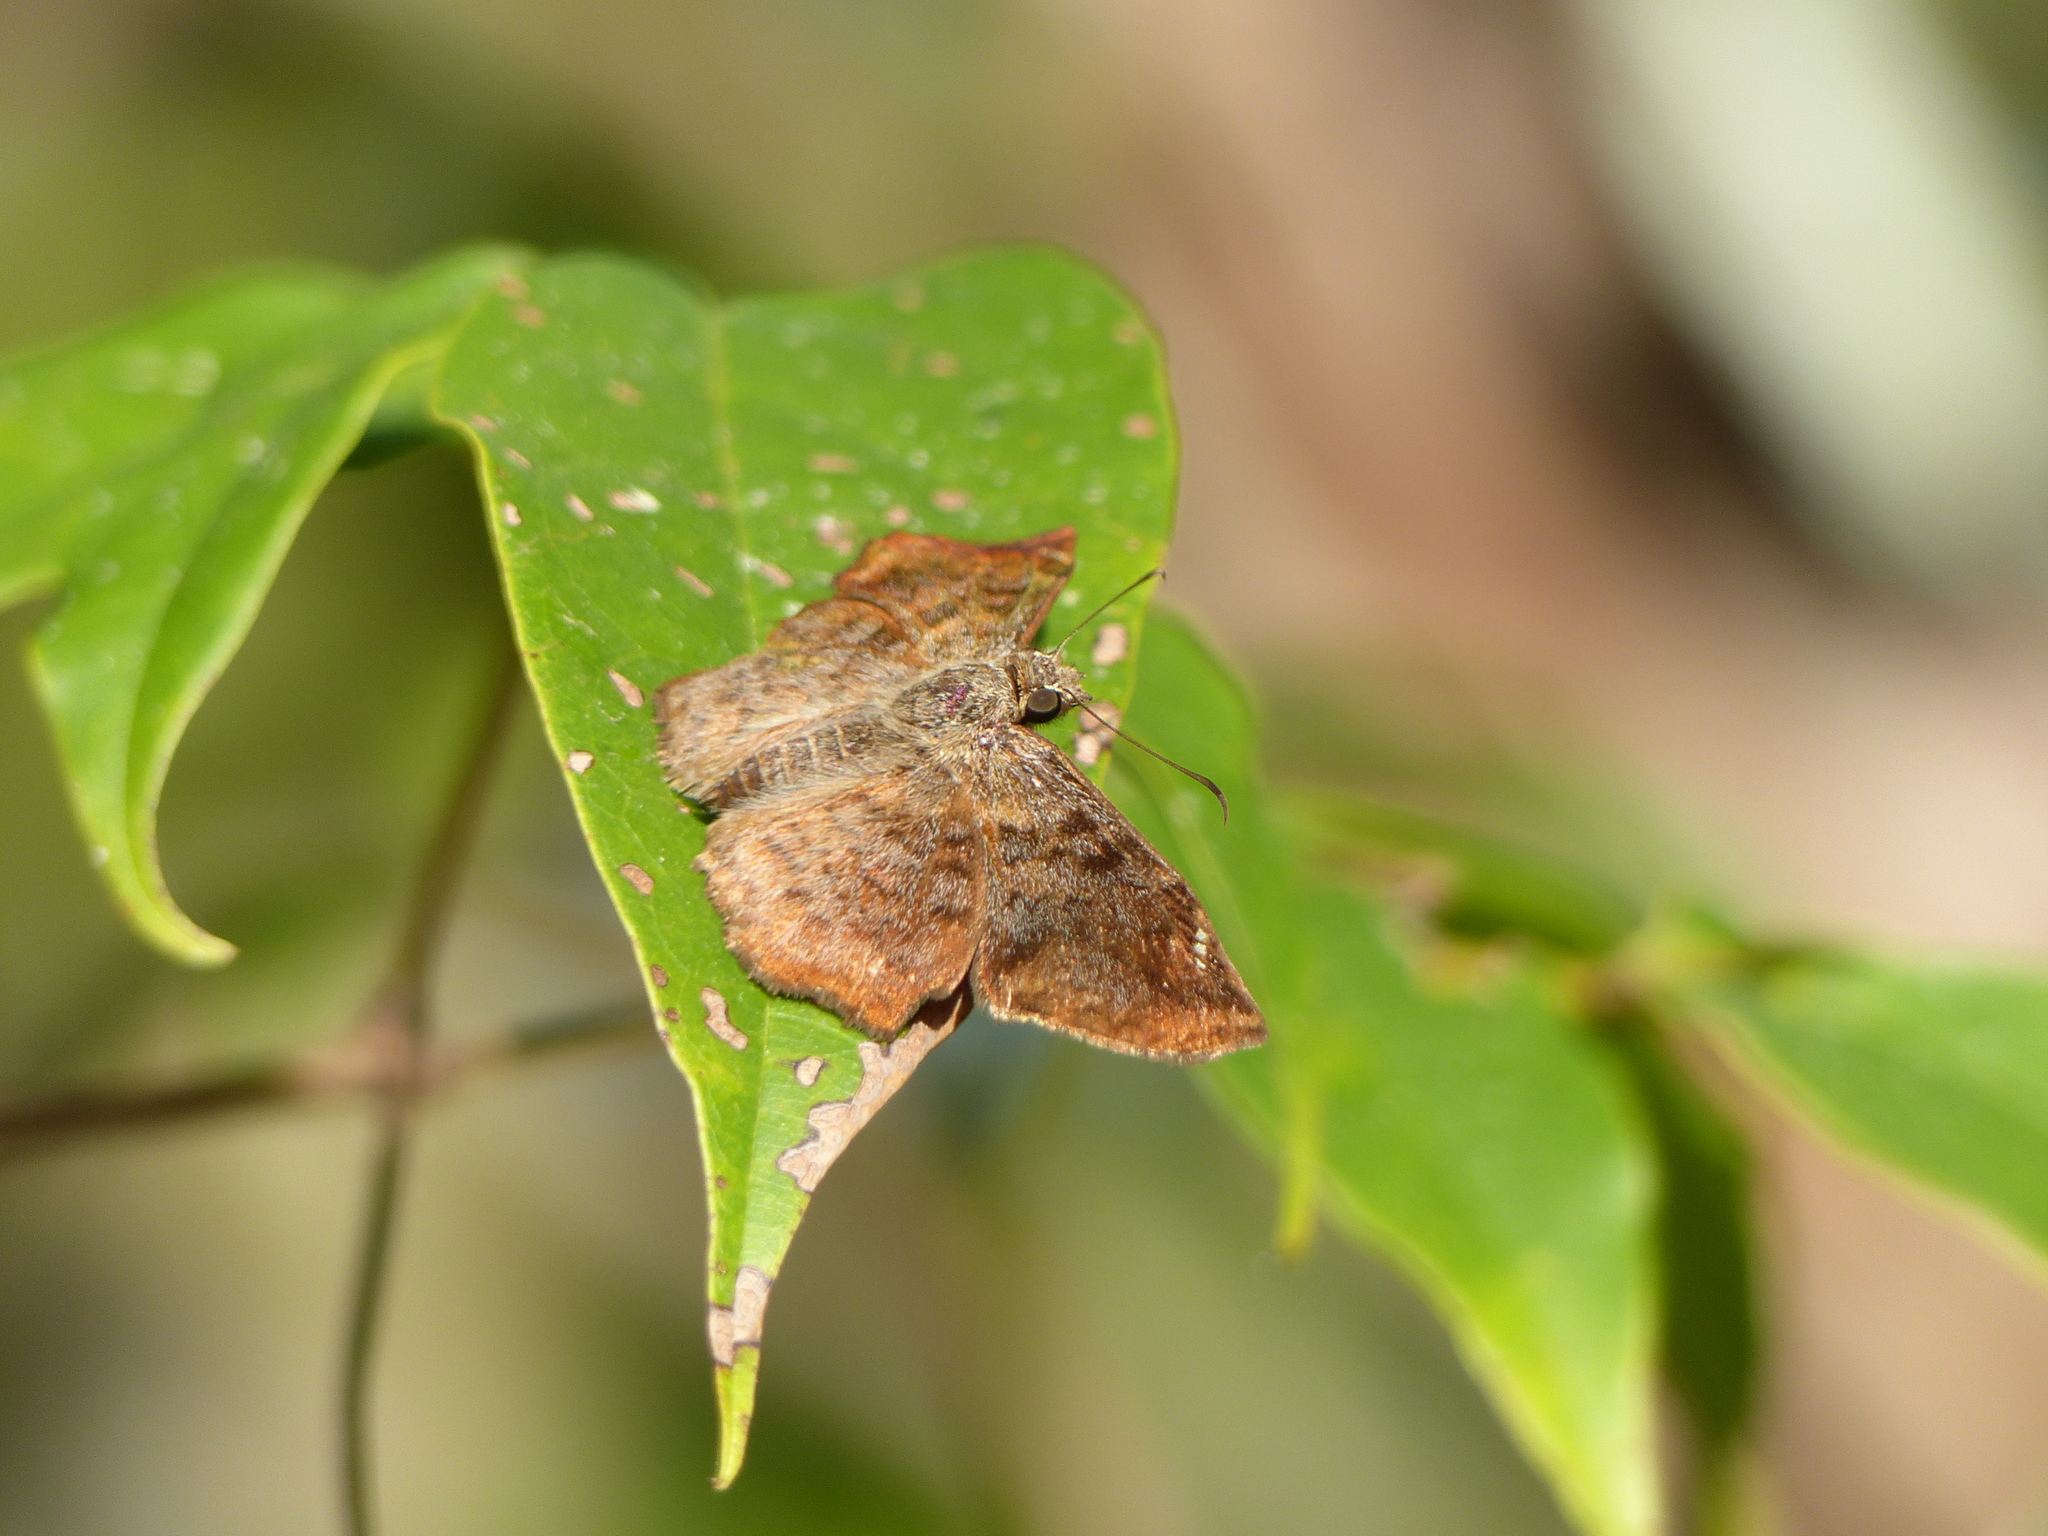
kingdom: Animalia
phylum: Arthropoda
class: Insecta
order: Lepidoptera
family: Hesperiidae
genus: Antigonus
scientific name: Antigonus erosus
